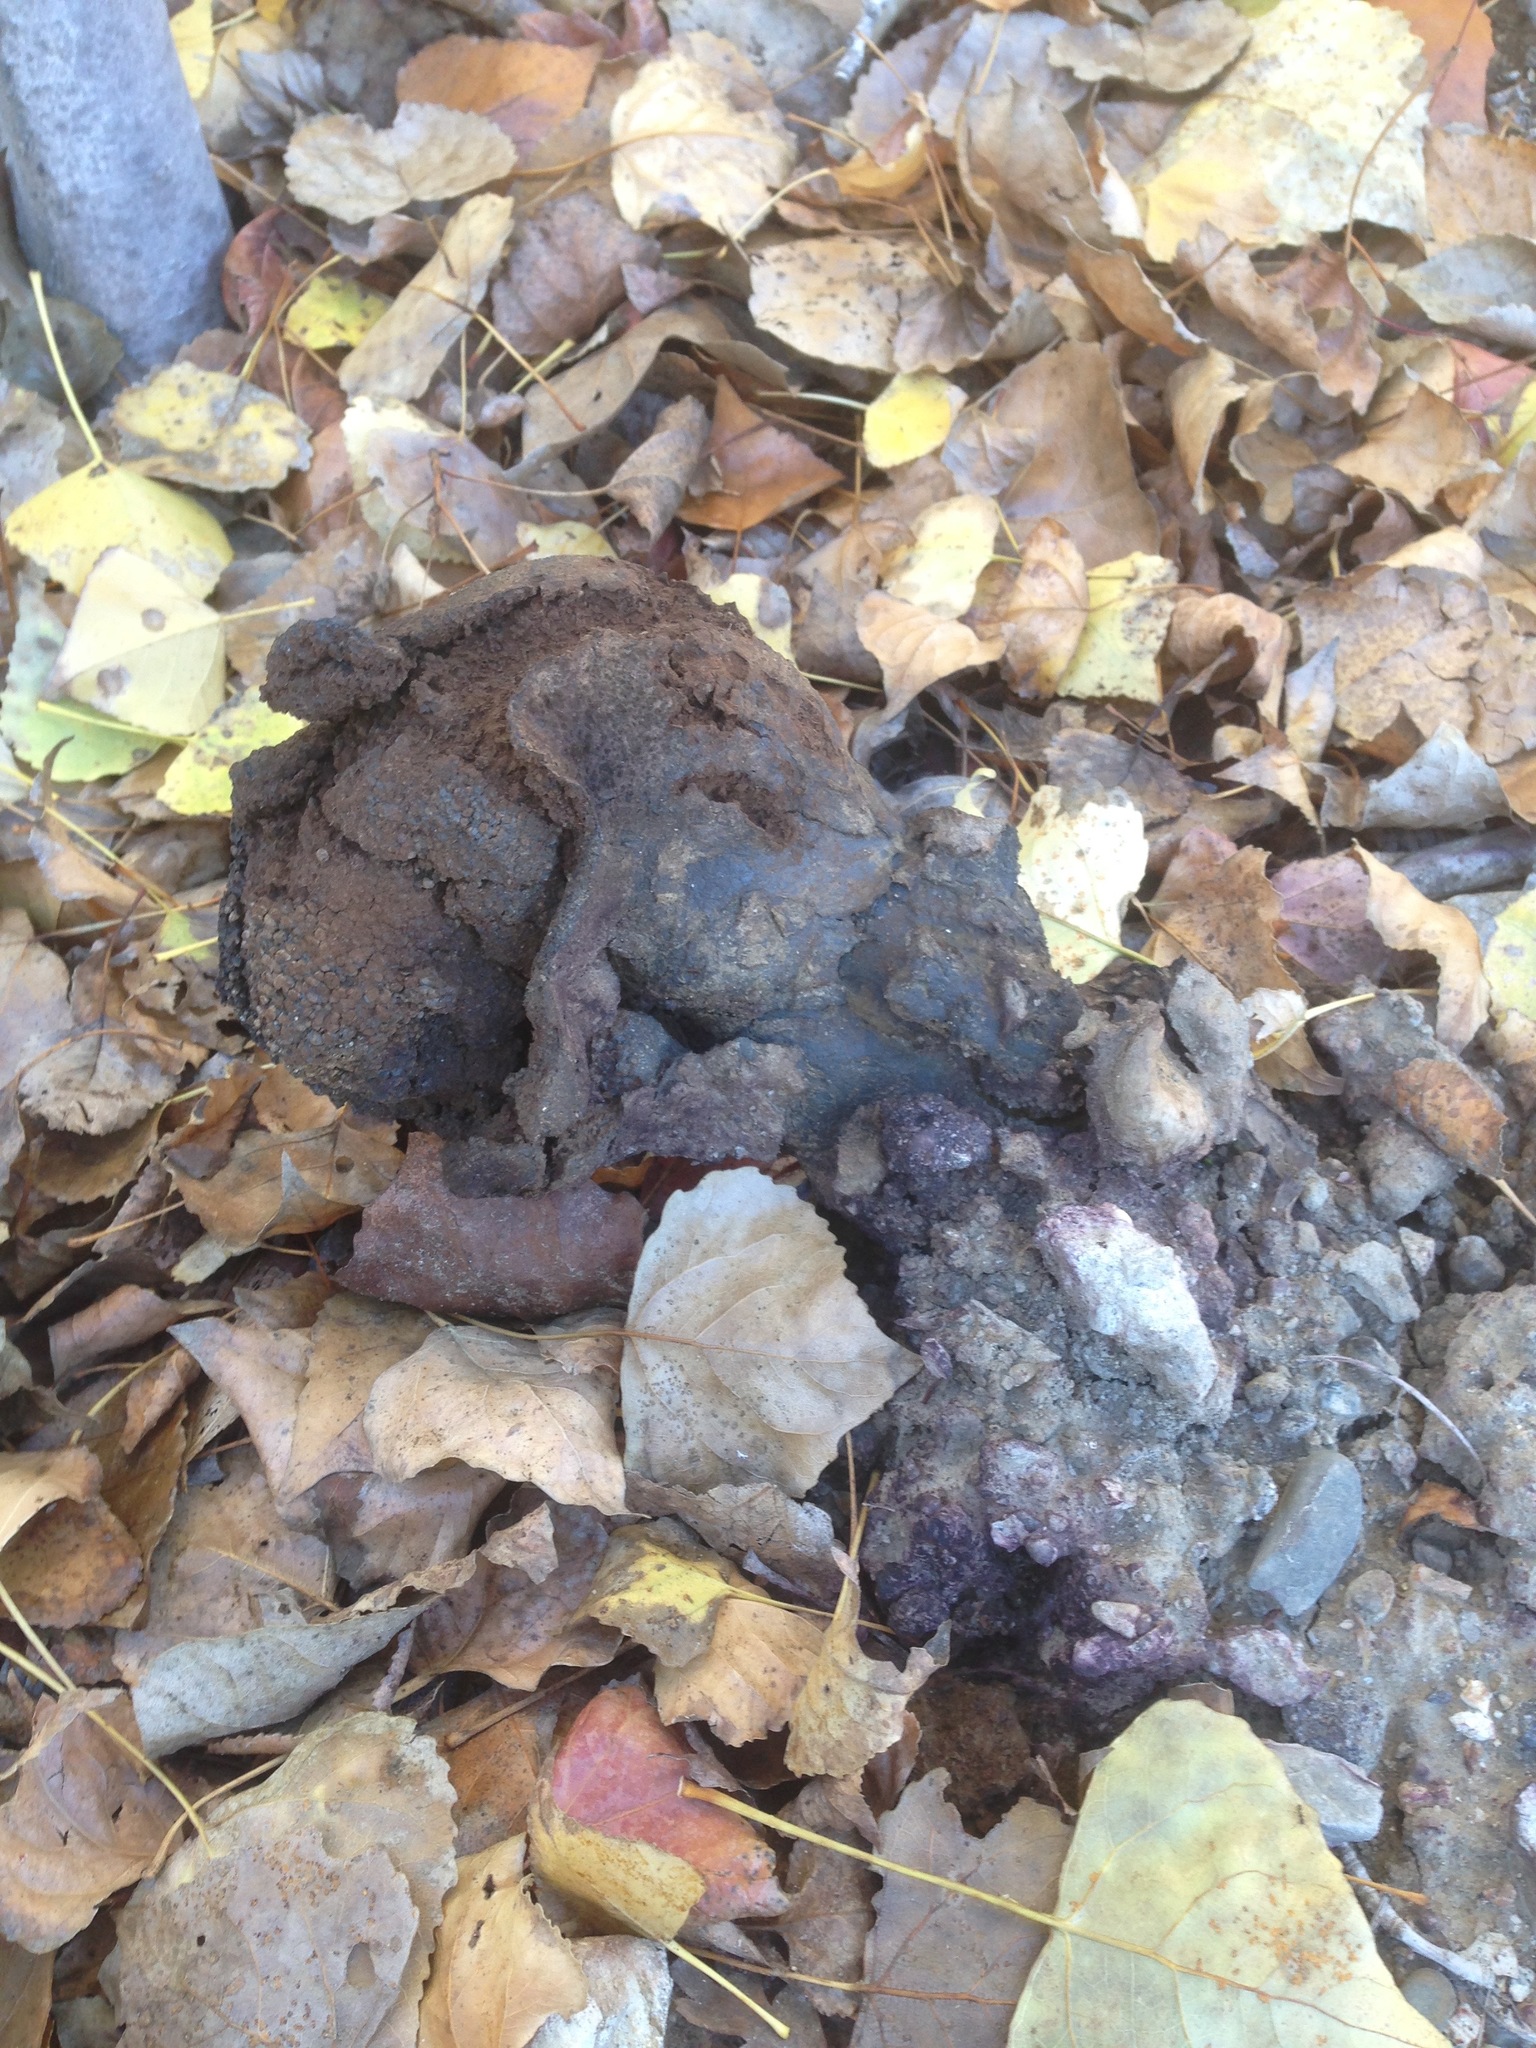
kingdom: Fungi
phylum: Basidiomycota
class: Agaricomycetes
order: Boletales
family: Sclerodermataceae
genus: Pisolithus
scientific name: Pisolithus arhizus
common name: Dyeball
